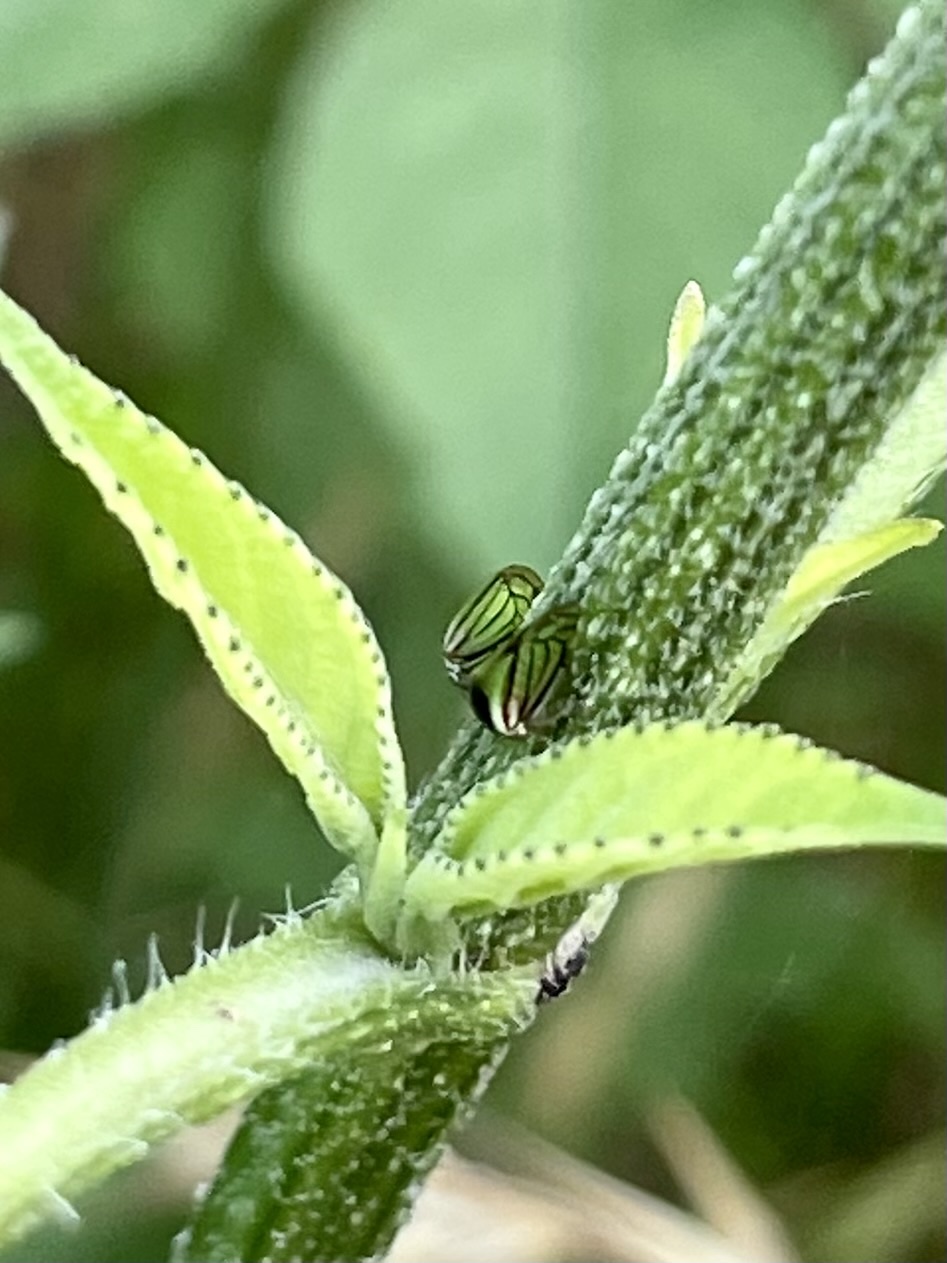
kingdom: Animalia
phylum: Arthropoda
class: Insecta
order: Hemiptera
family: Membracidae
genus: Acutalis
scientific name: Acutalis tartarea
